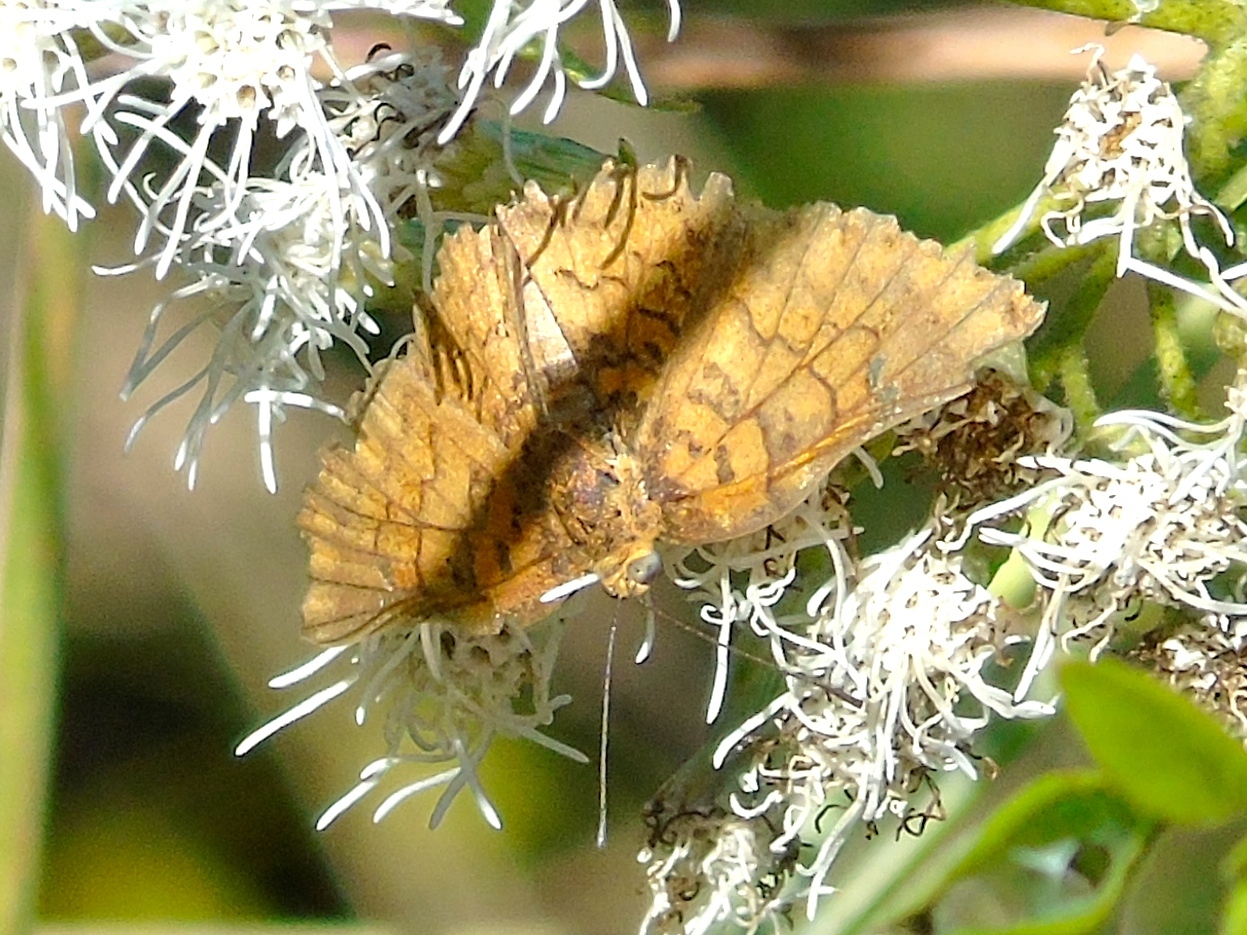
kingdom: Animalia
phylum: Arthropoda
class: Insecta
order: Lepidoptera
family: Lycaenidae
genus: Emesis
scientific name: Emesis
